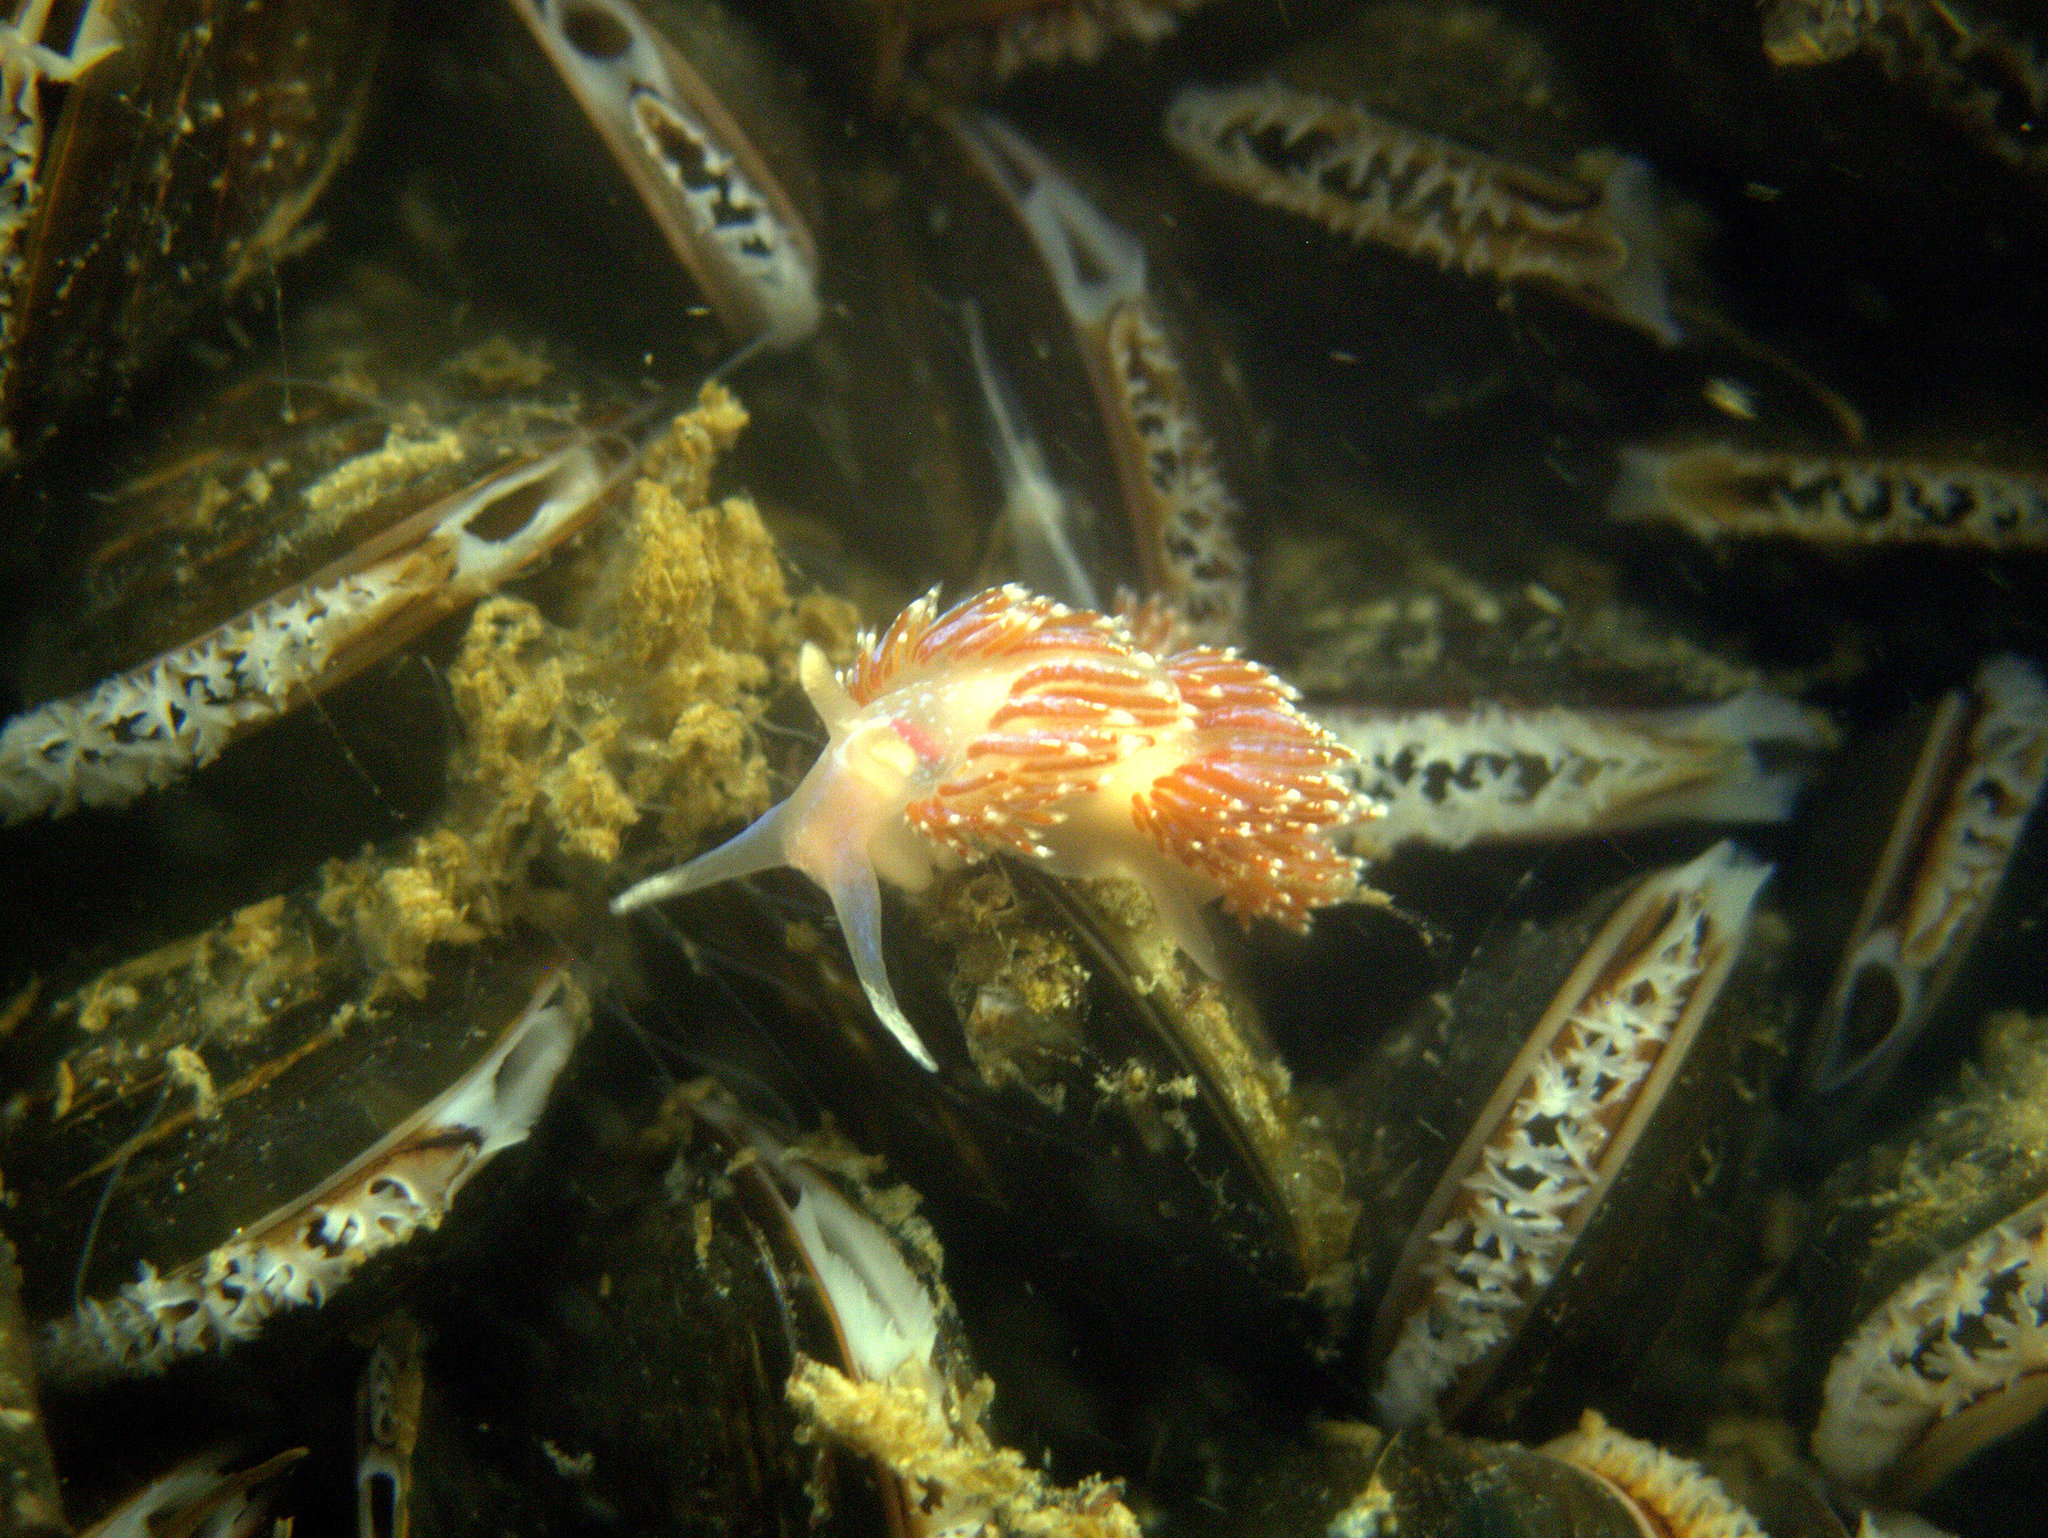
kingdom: Animalia
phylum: Mollusca
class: Gastropoda
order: Nudibranchia
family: Facelinidae
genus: Facelina
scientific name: Facelina auriculata
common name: Slender facelina
